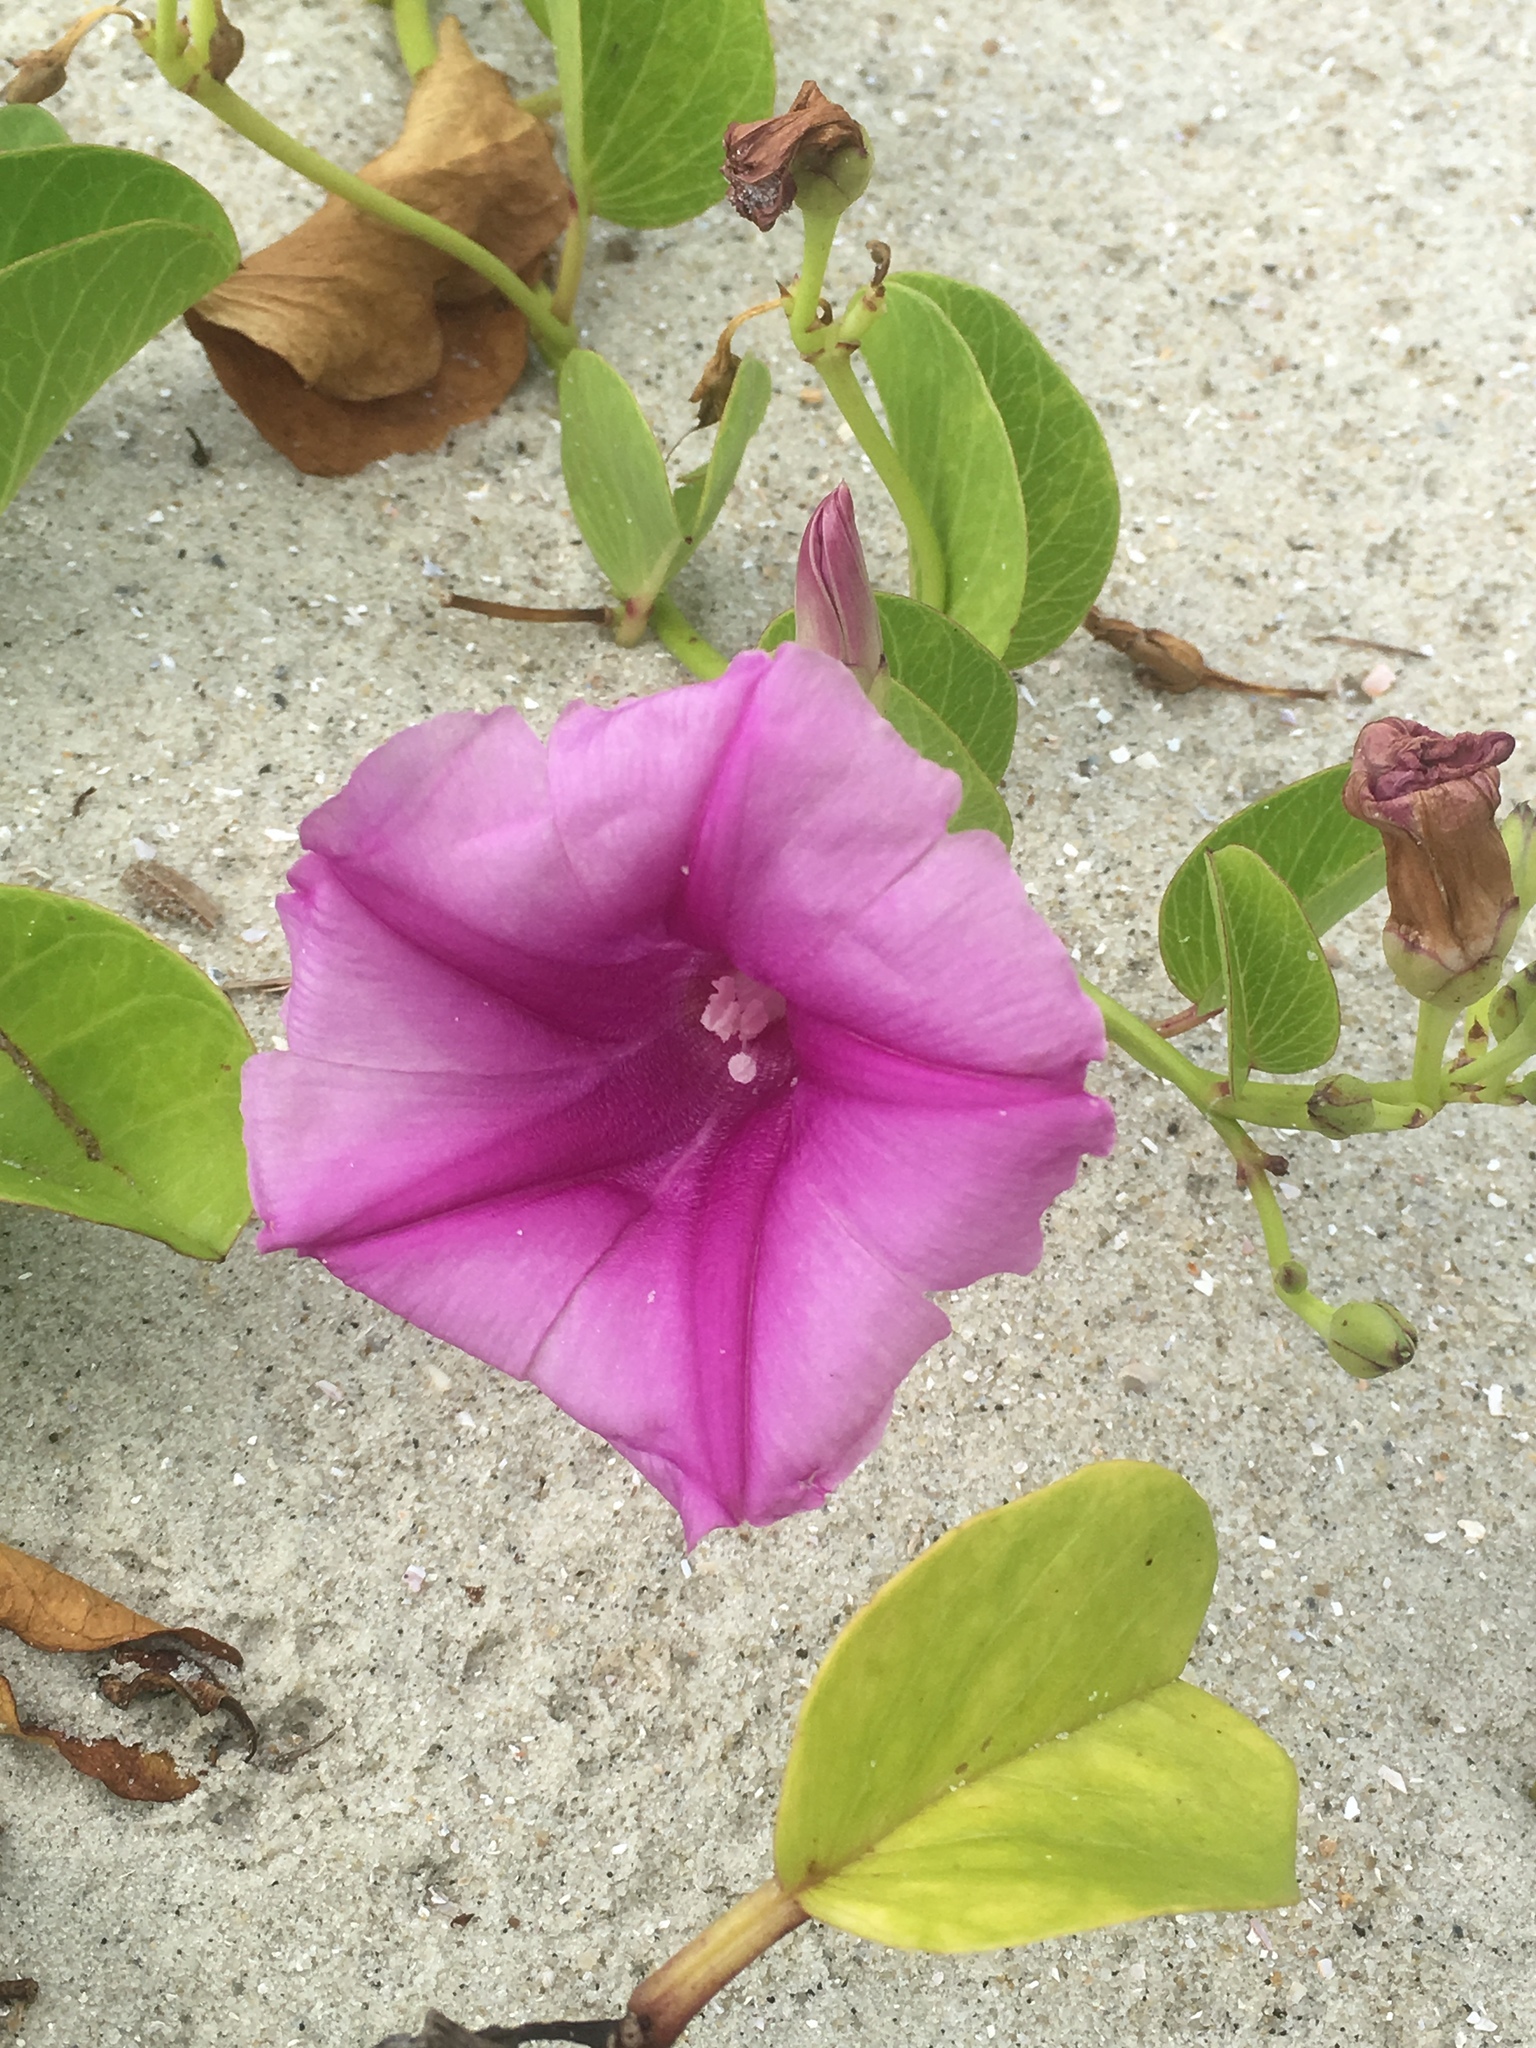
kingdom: Plantae
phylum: Tracheophyta
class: Magnoliopsida
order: Solanales
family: Convolvulaceae
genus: Ipomoea
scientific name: Ipomoea pes-caprae
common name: Beach morning glory
